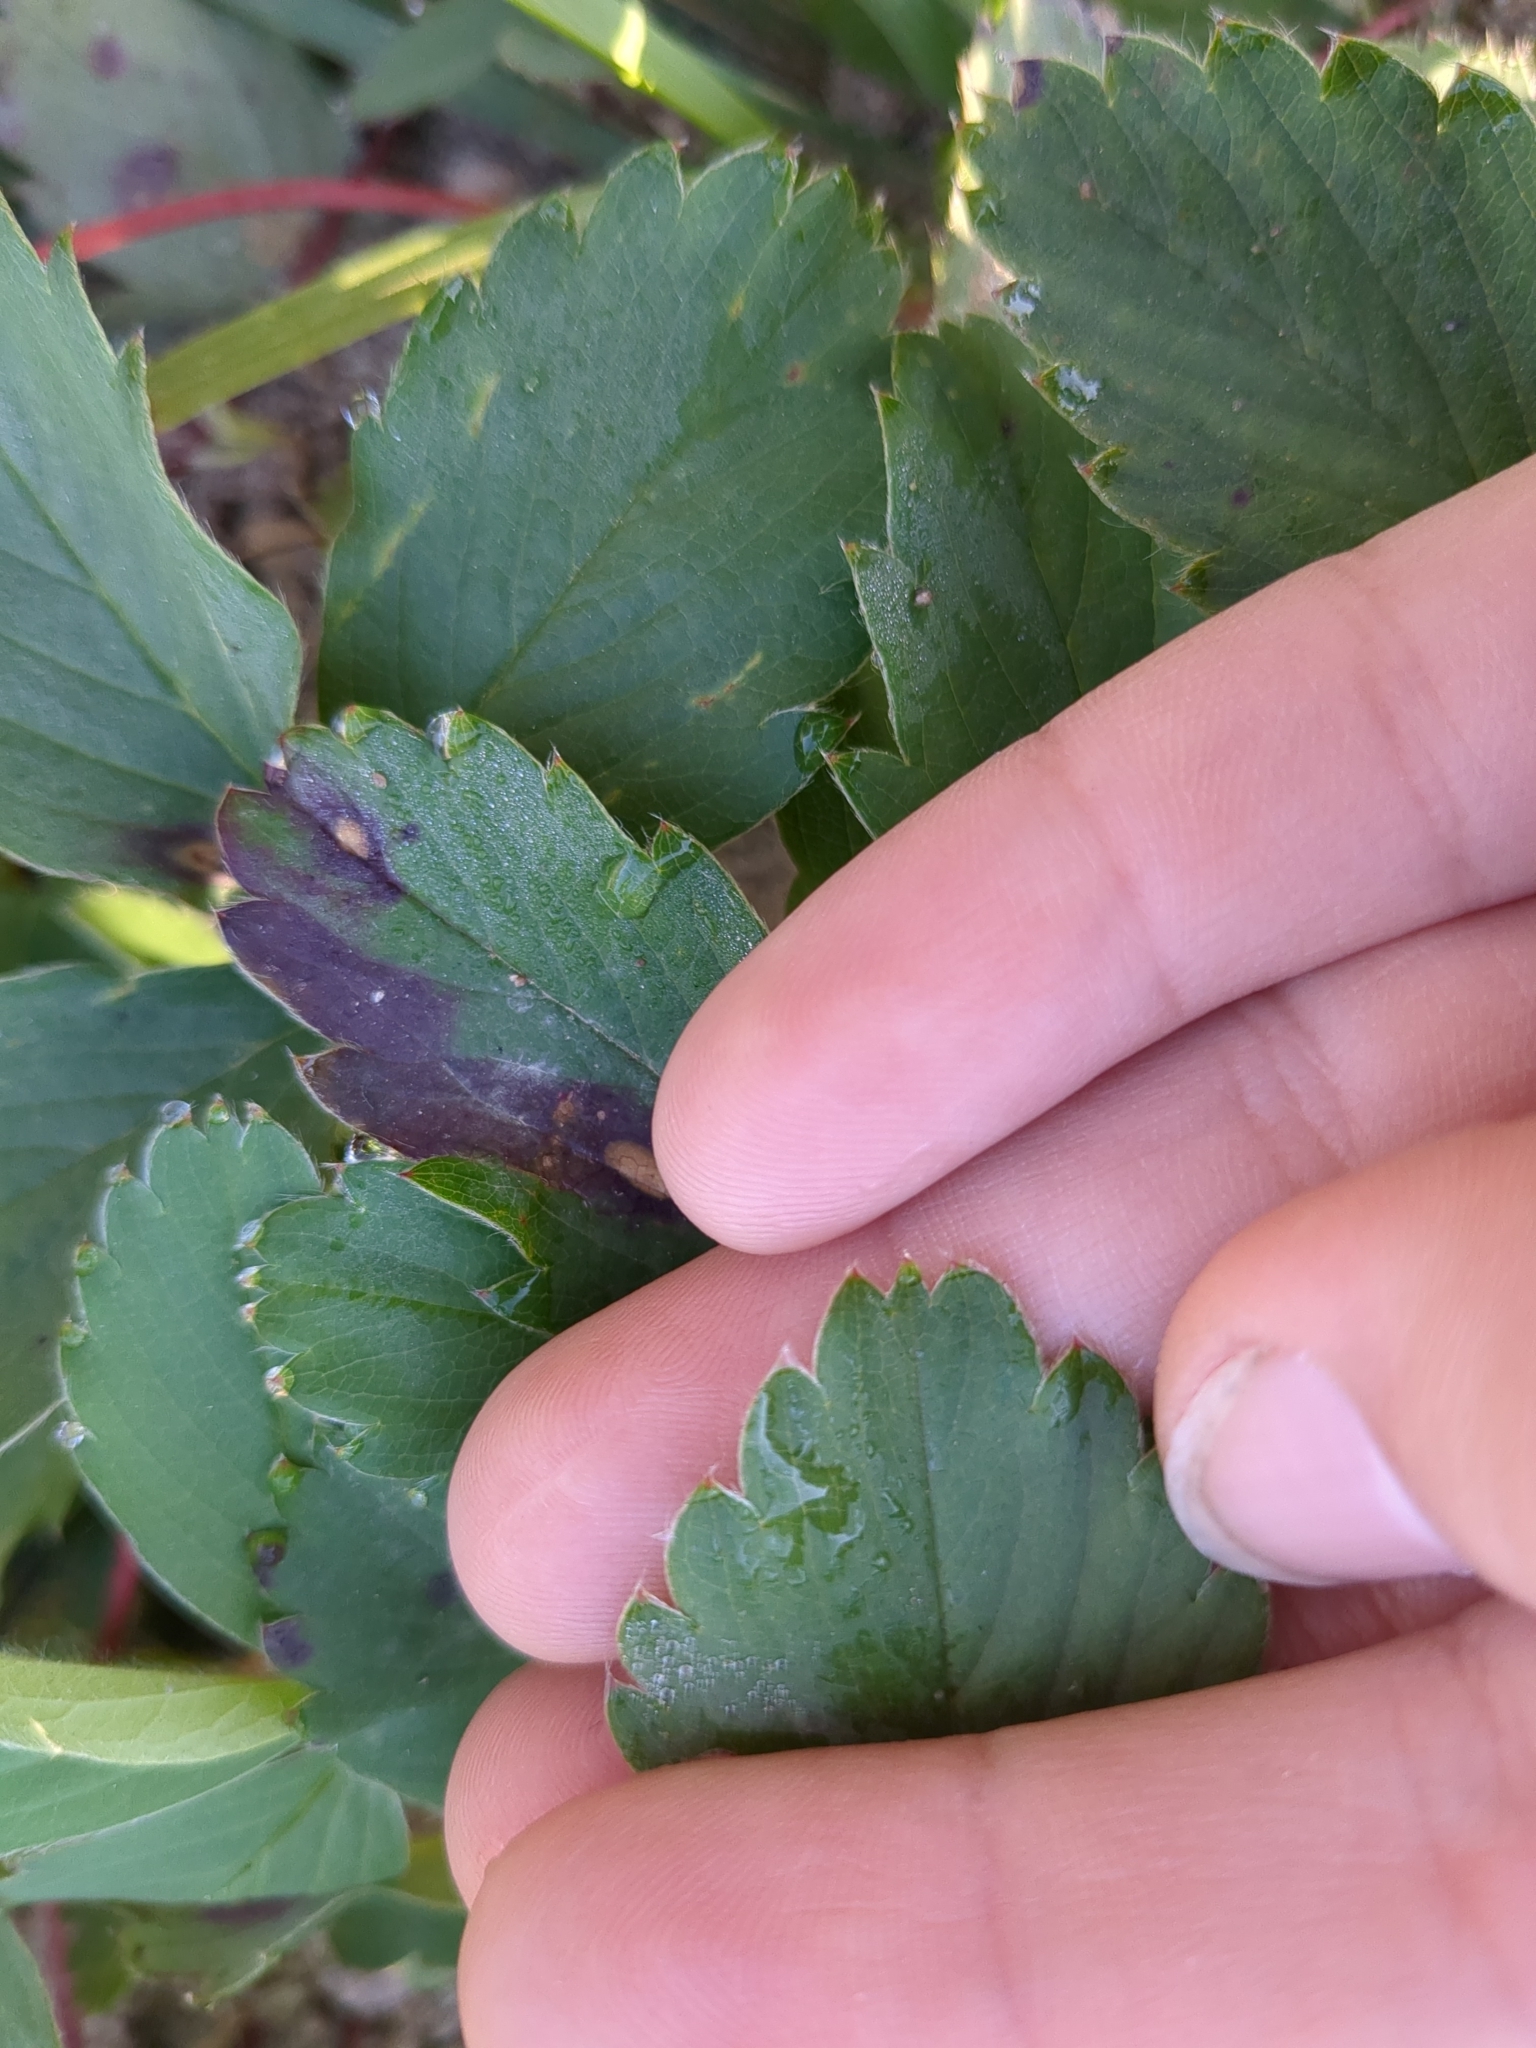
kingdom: Plantae
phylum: Tracheophyta
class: Magnoliopsida
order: Rosales
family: Rosaceae
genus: Fragaria
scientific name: Fragaria virginiana
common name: Thickleaved wild strawberry
